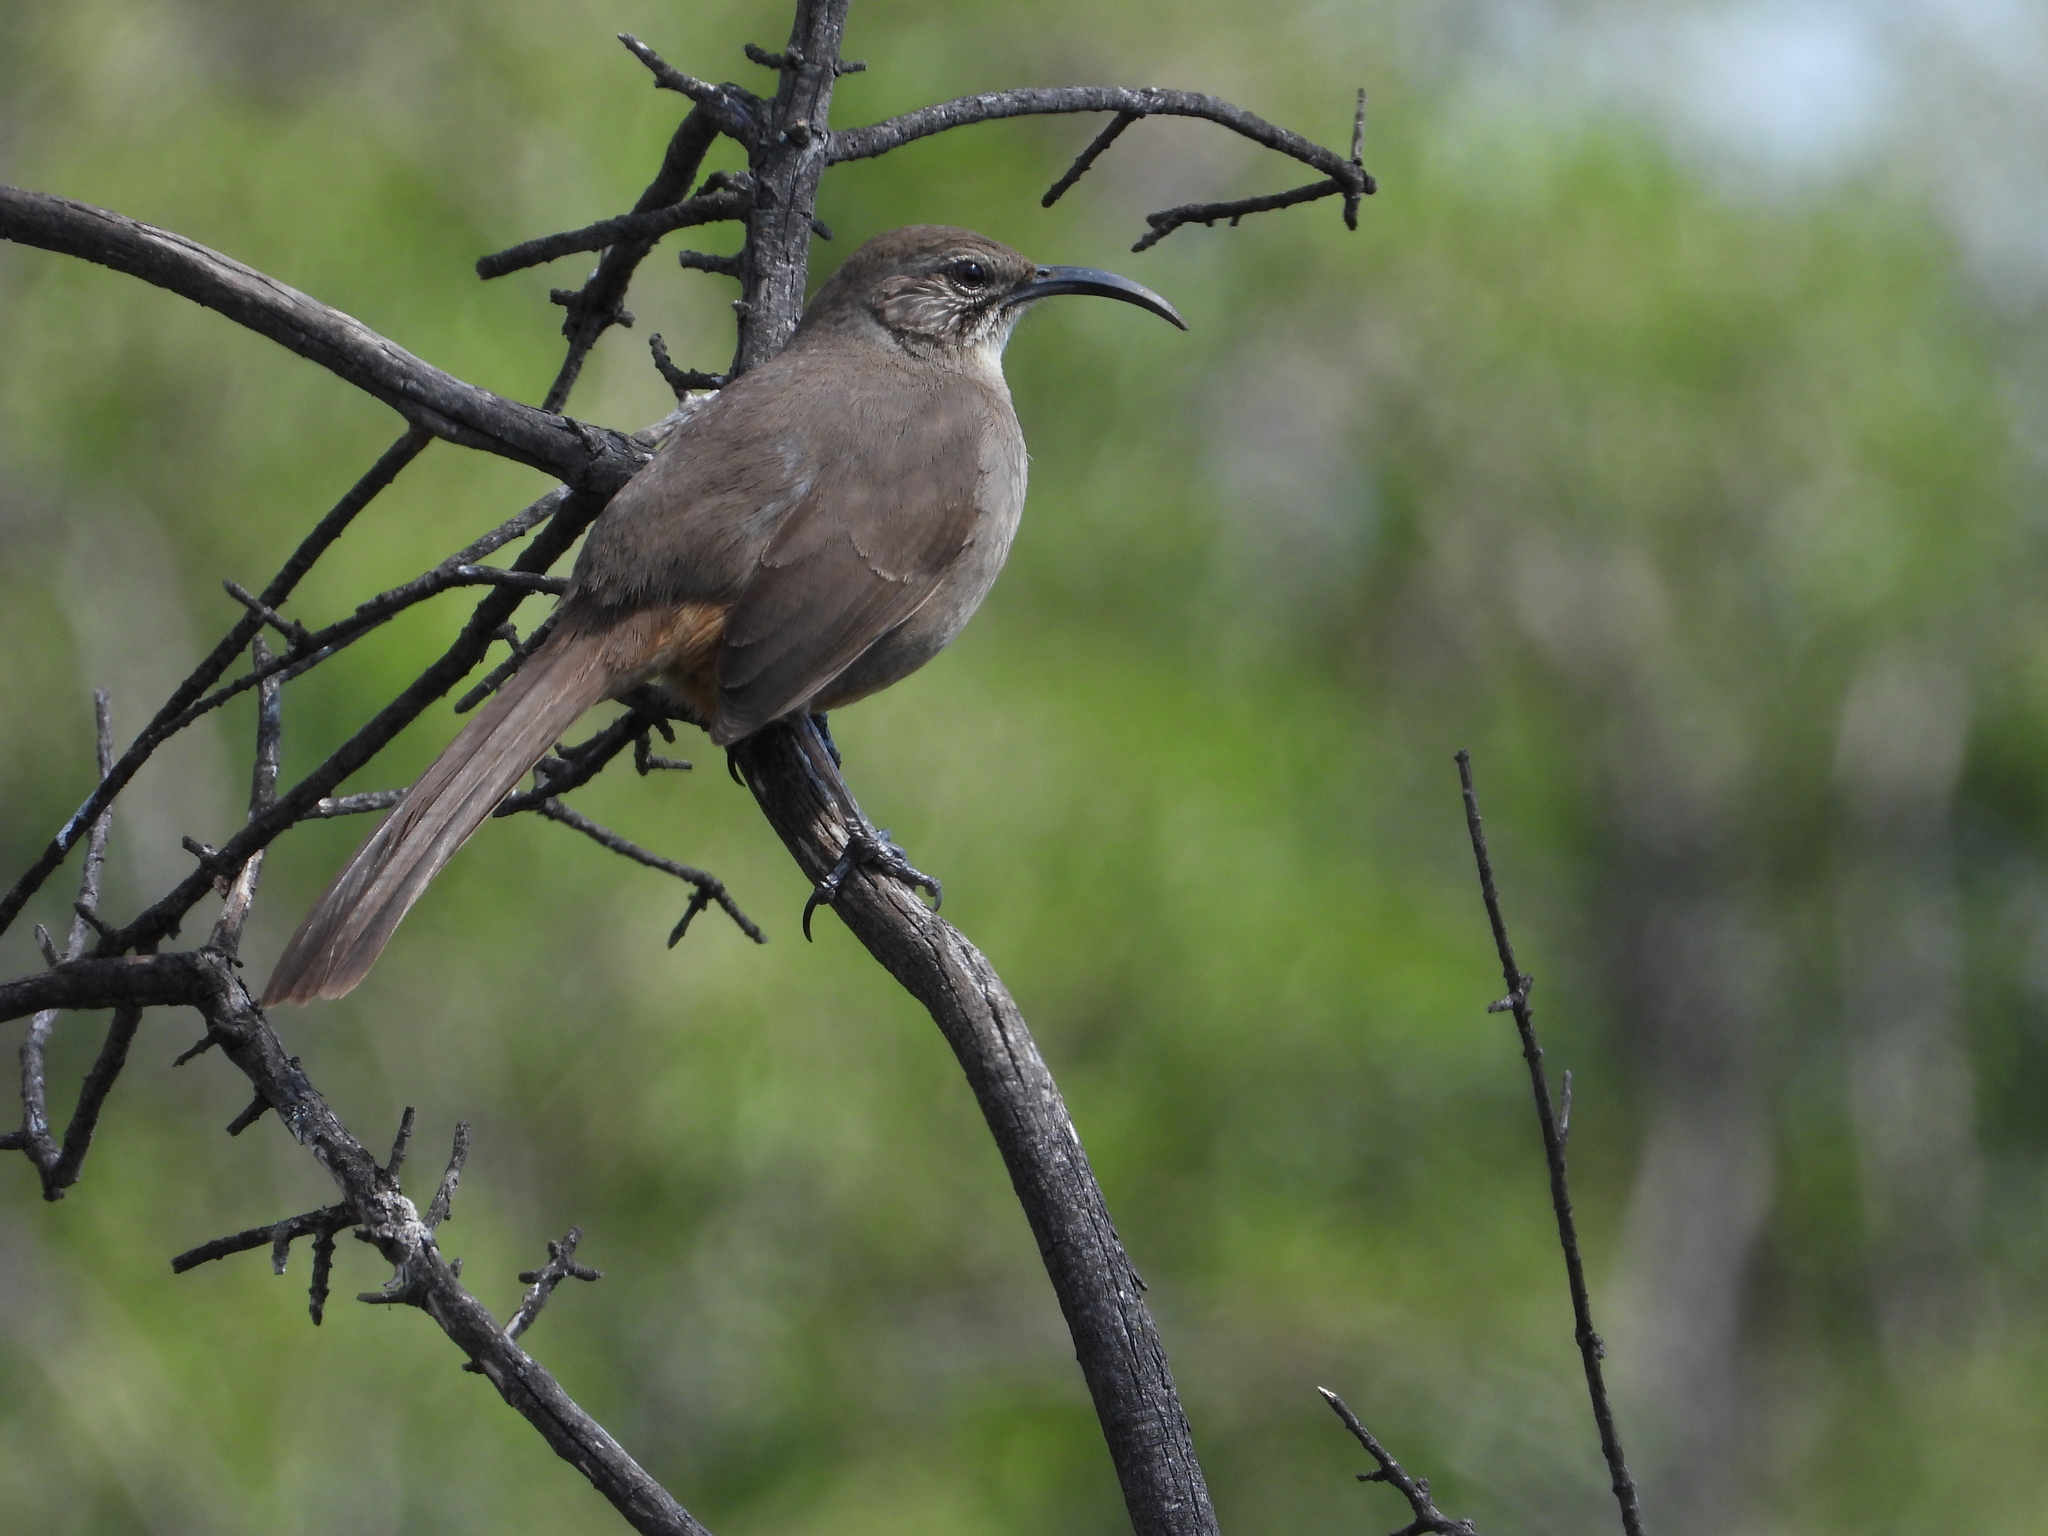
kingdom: Animalia
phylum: Chordata
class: Aves
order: Passeriformes
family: Mimidae
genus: Toxostoma
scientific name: Toxostoma redivivum
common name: California thrasher
